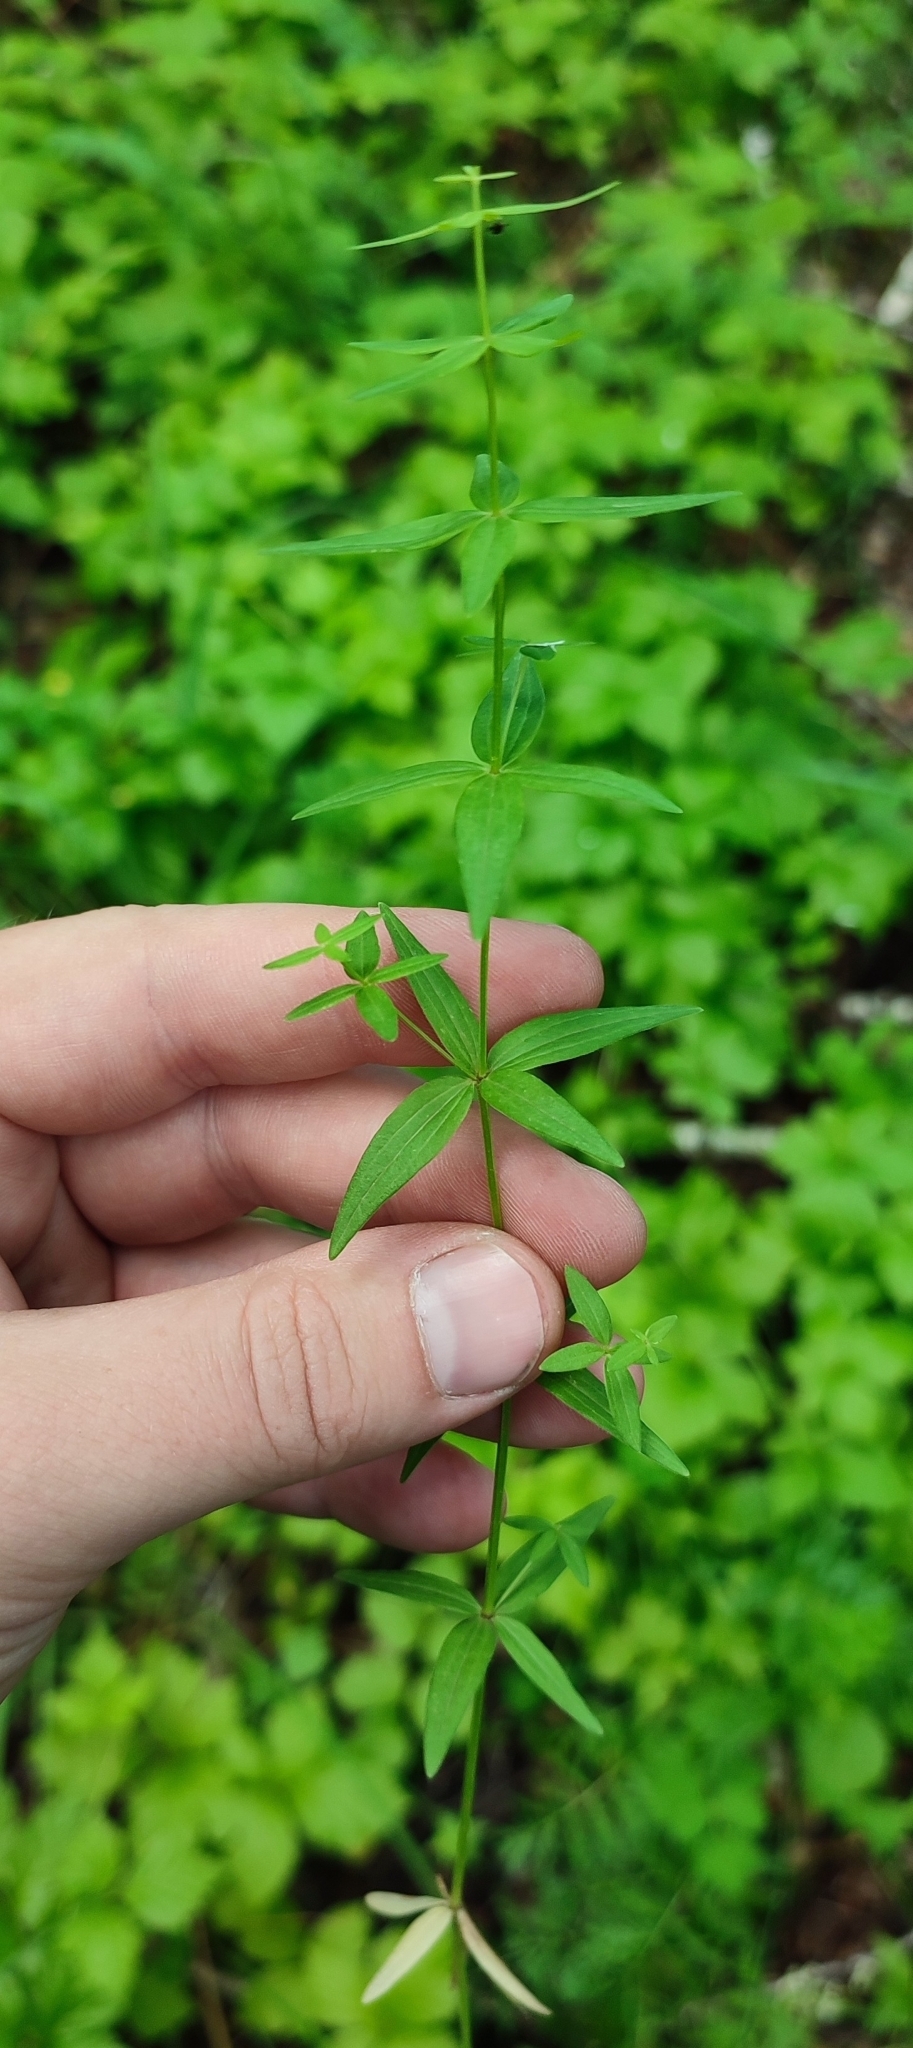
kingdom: Plantae
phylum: Tracheophyta
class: Magnoliopsida
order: Gentianales
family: Rubiaceae
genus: Galium
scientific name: Galium boreale
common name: Northern bedstraw
